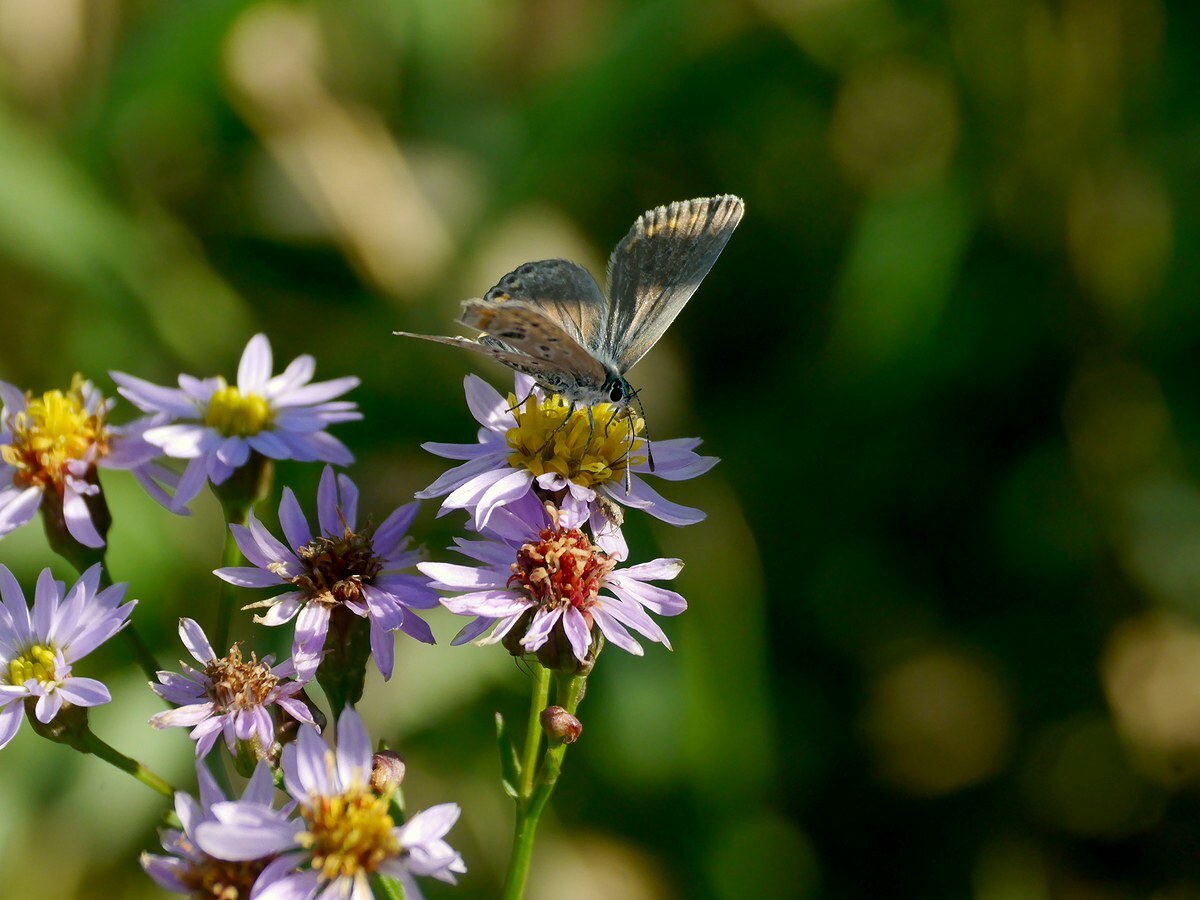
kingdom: Animalia
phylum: Arthropoda
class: Insecta
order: Lepidoptera
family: Lycaenidae
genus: Polyommatus
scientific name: Polyommatus icarus
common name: Common blue
